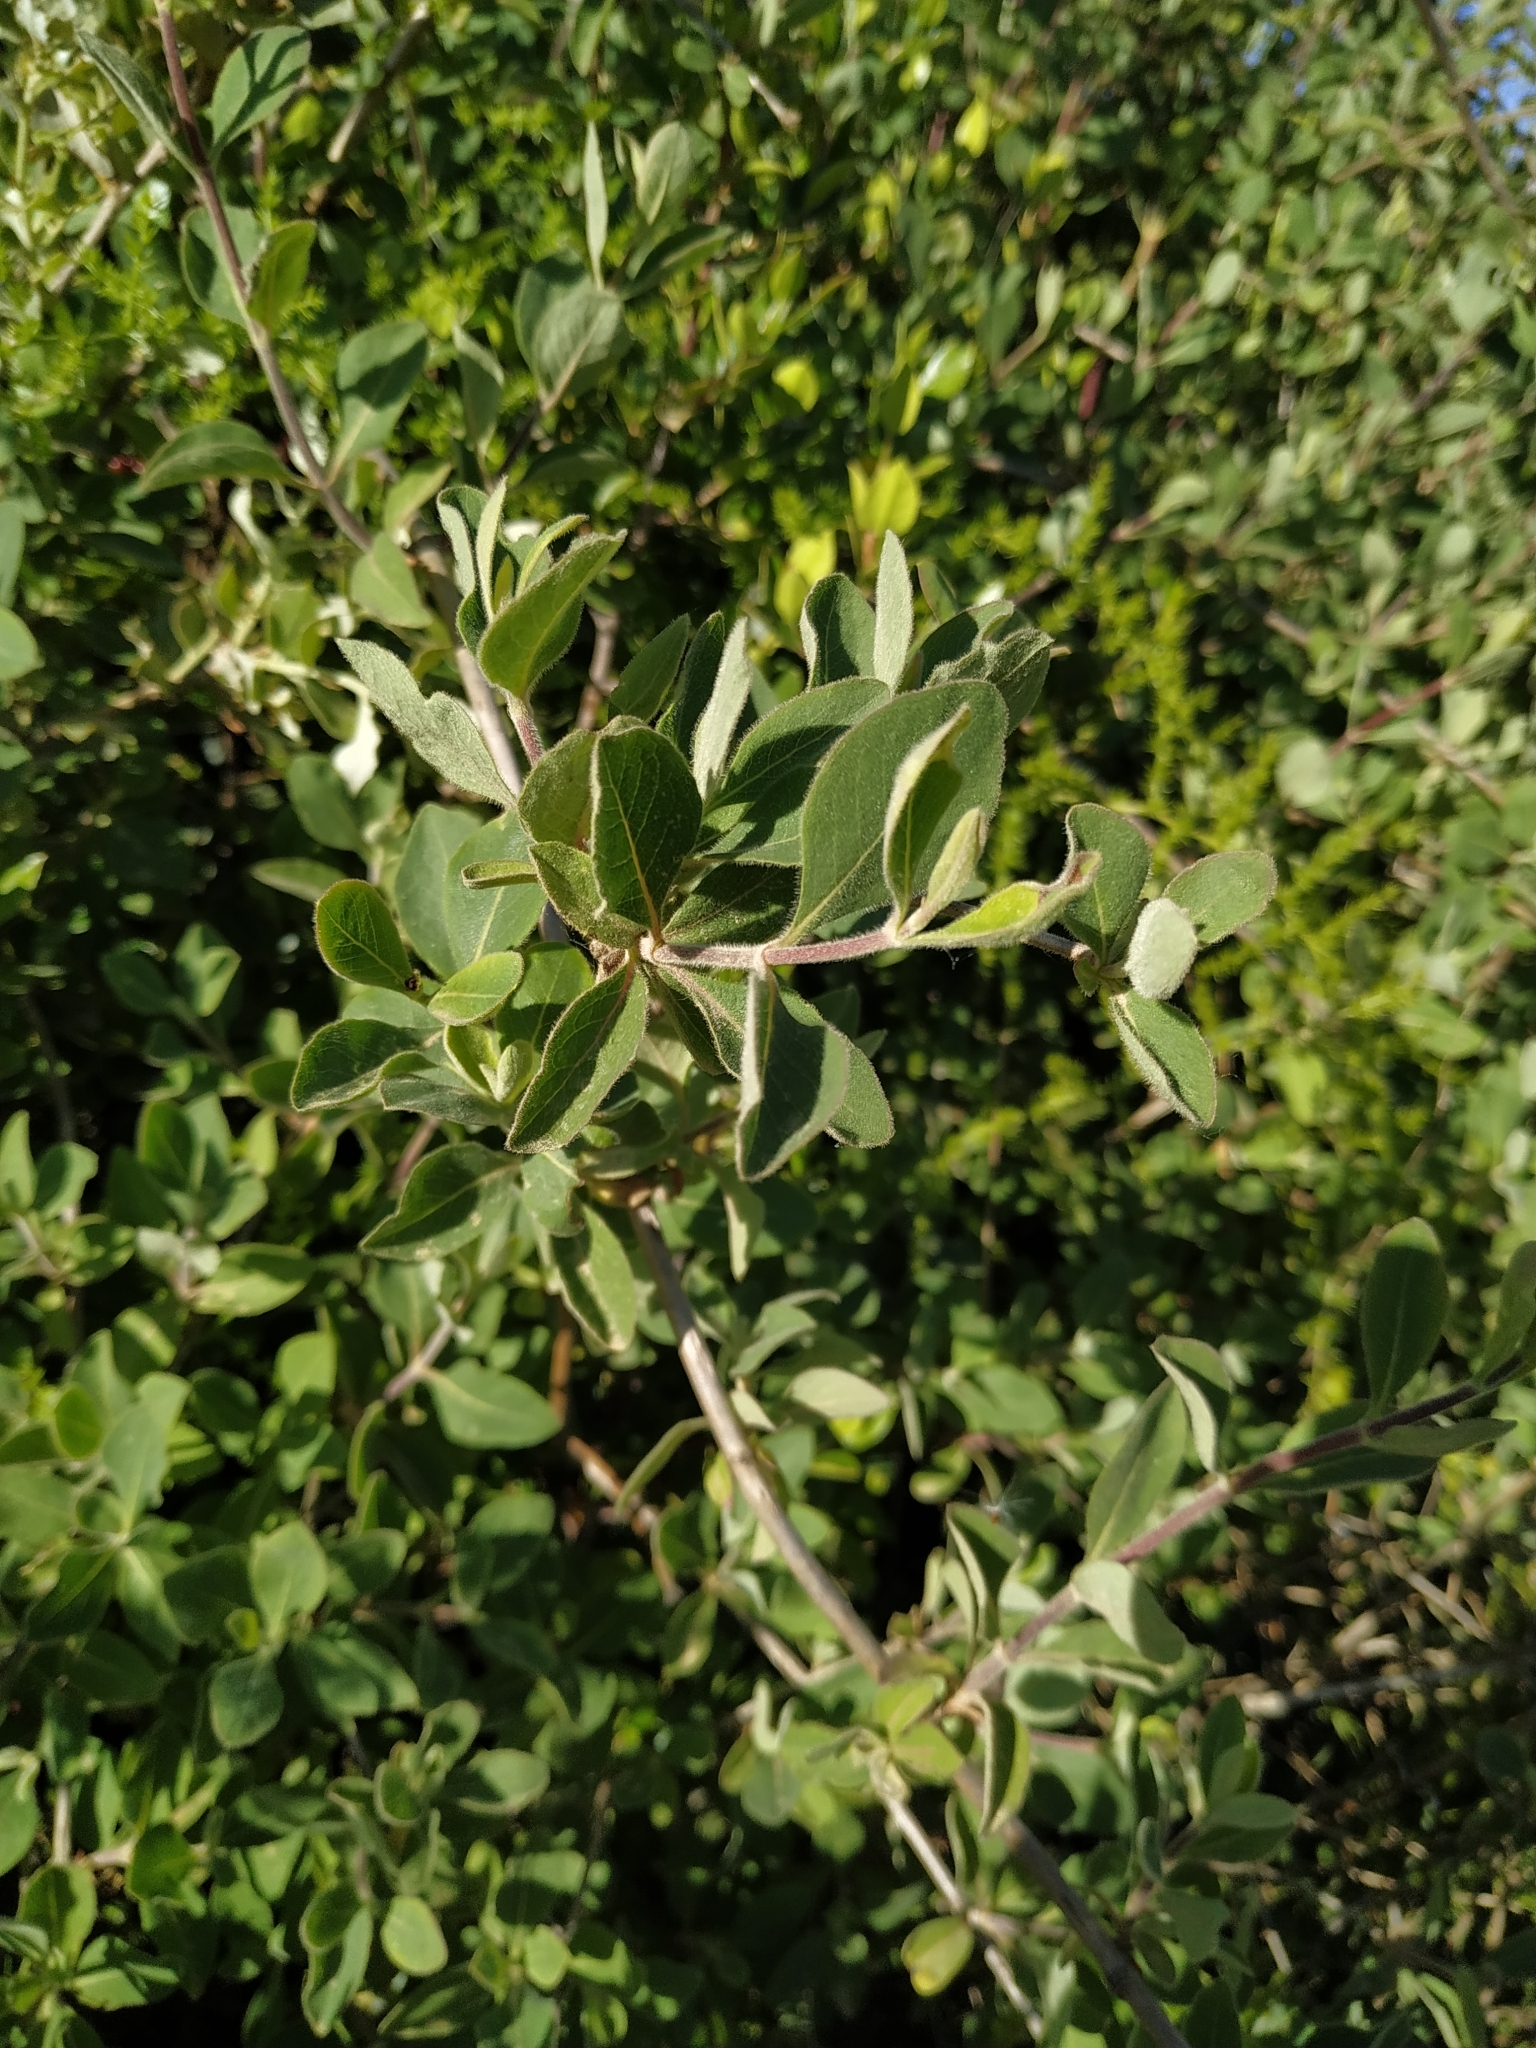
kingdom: Plantae
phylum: Tracheophyta
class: Magnoliopsida
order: Dipsacales
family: Caprifoliaceae
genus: Lonicera
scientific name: Lonicera etrusca
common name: Etruscan honeysuckle
